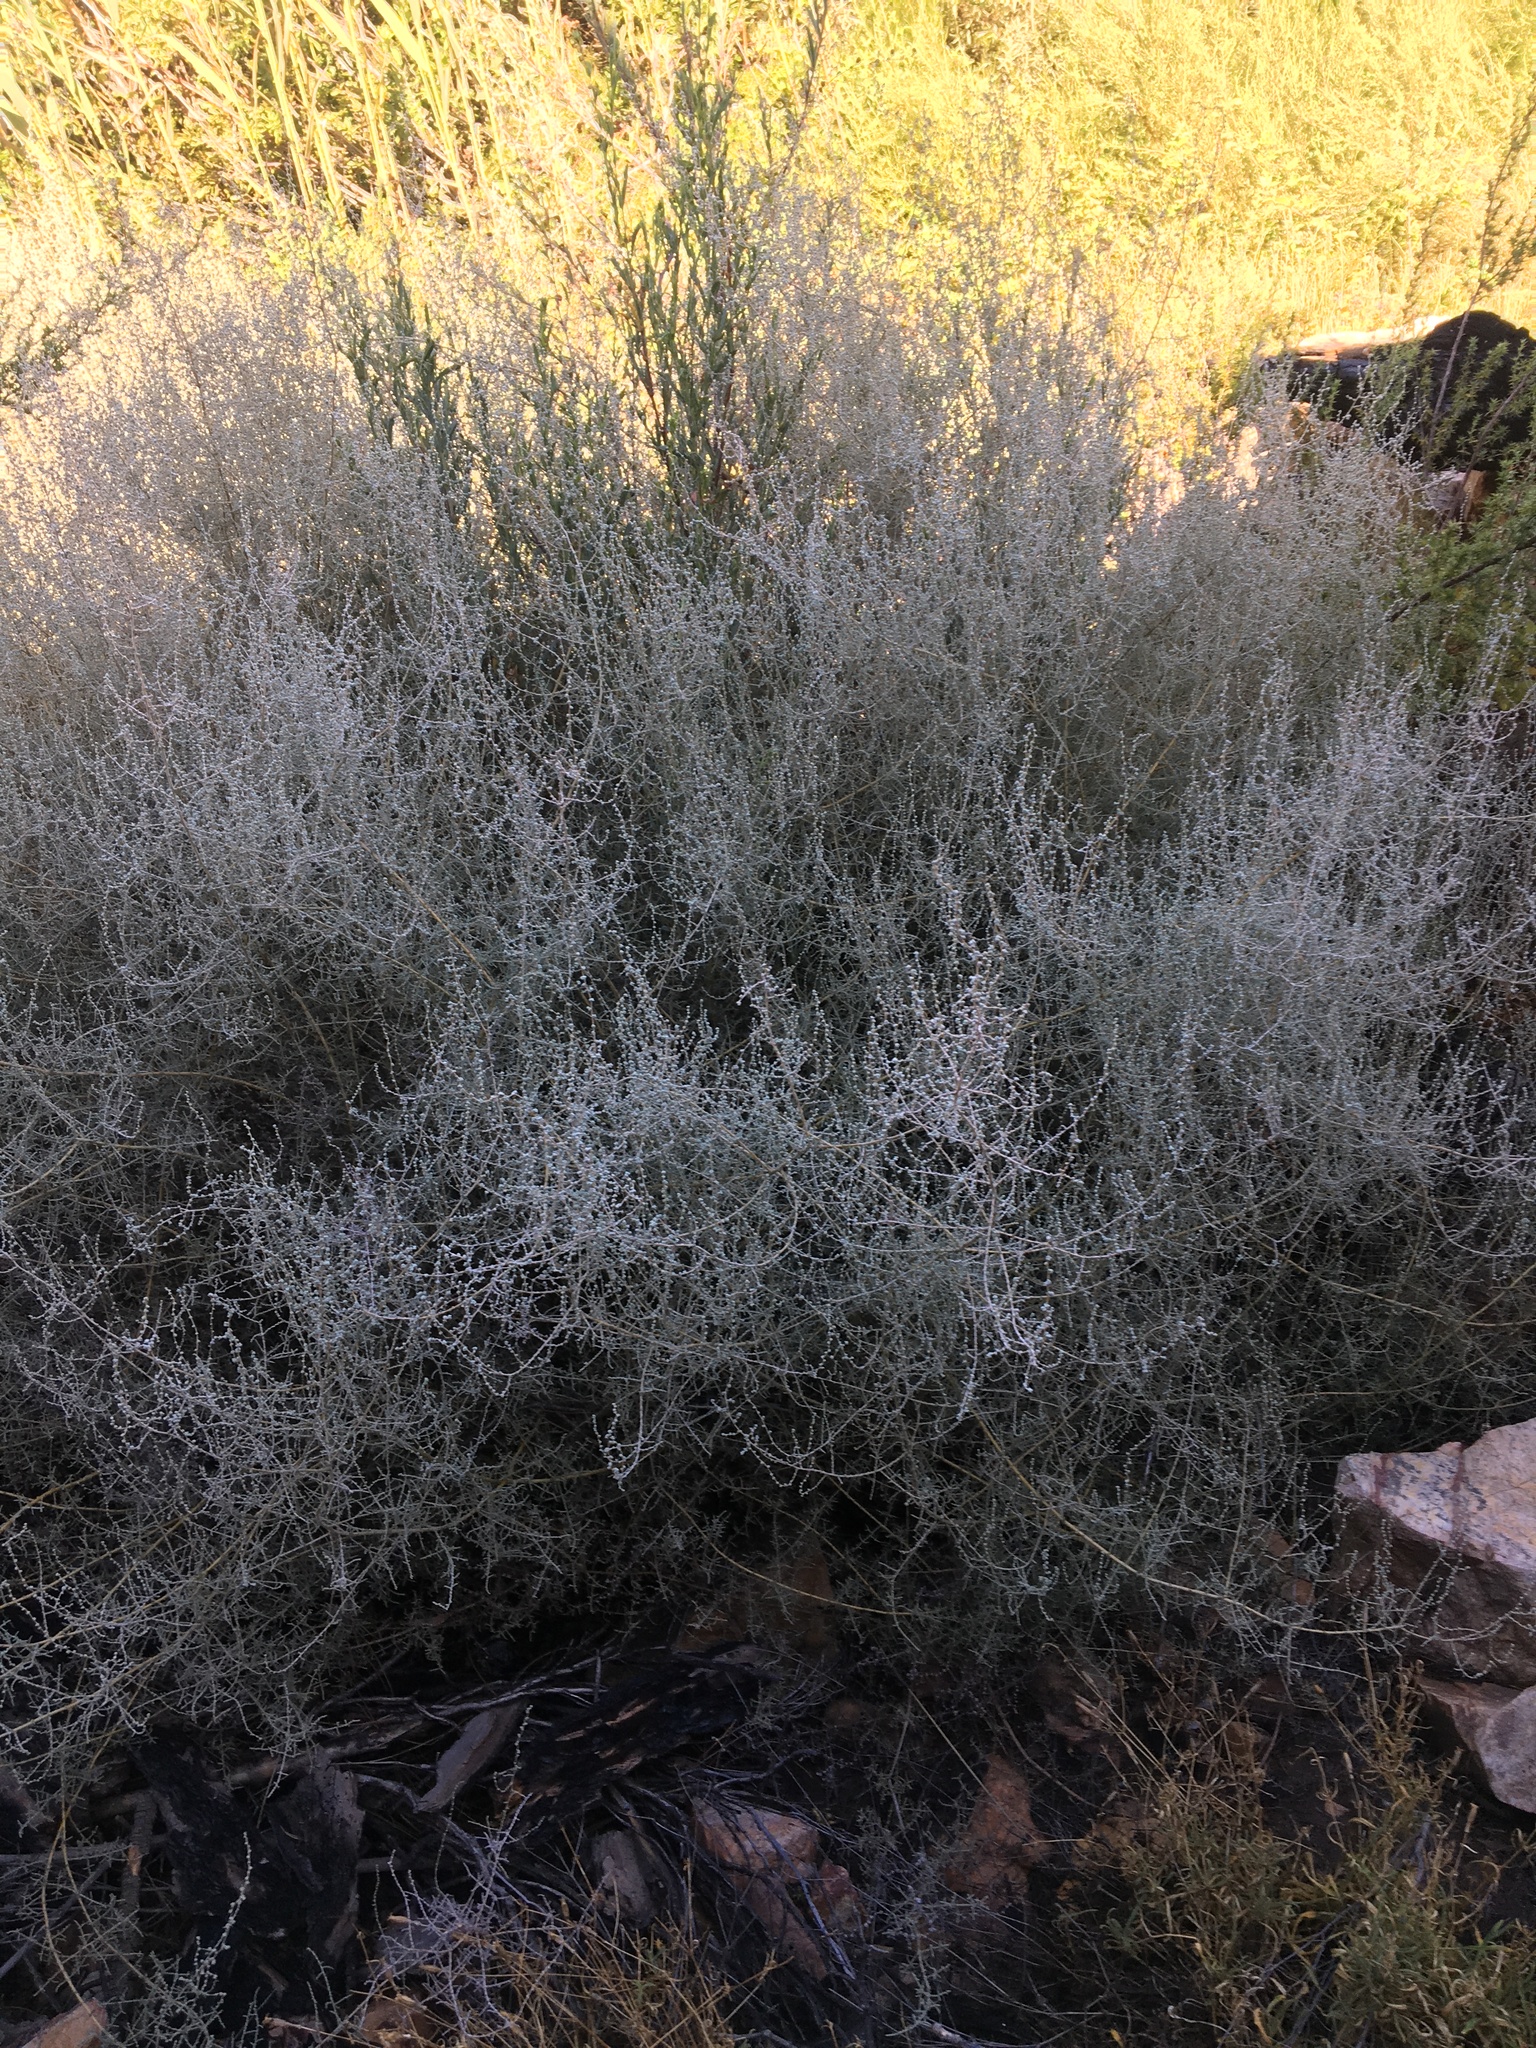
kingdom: Plantae
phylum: Tracheophyta
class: Magnoliopsida
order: Asterales
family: Asteraceae
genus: Seriphium
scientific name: Seriphium plumosum
